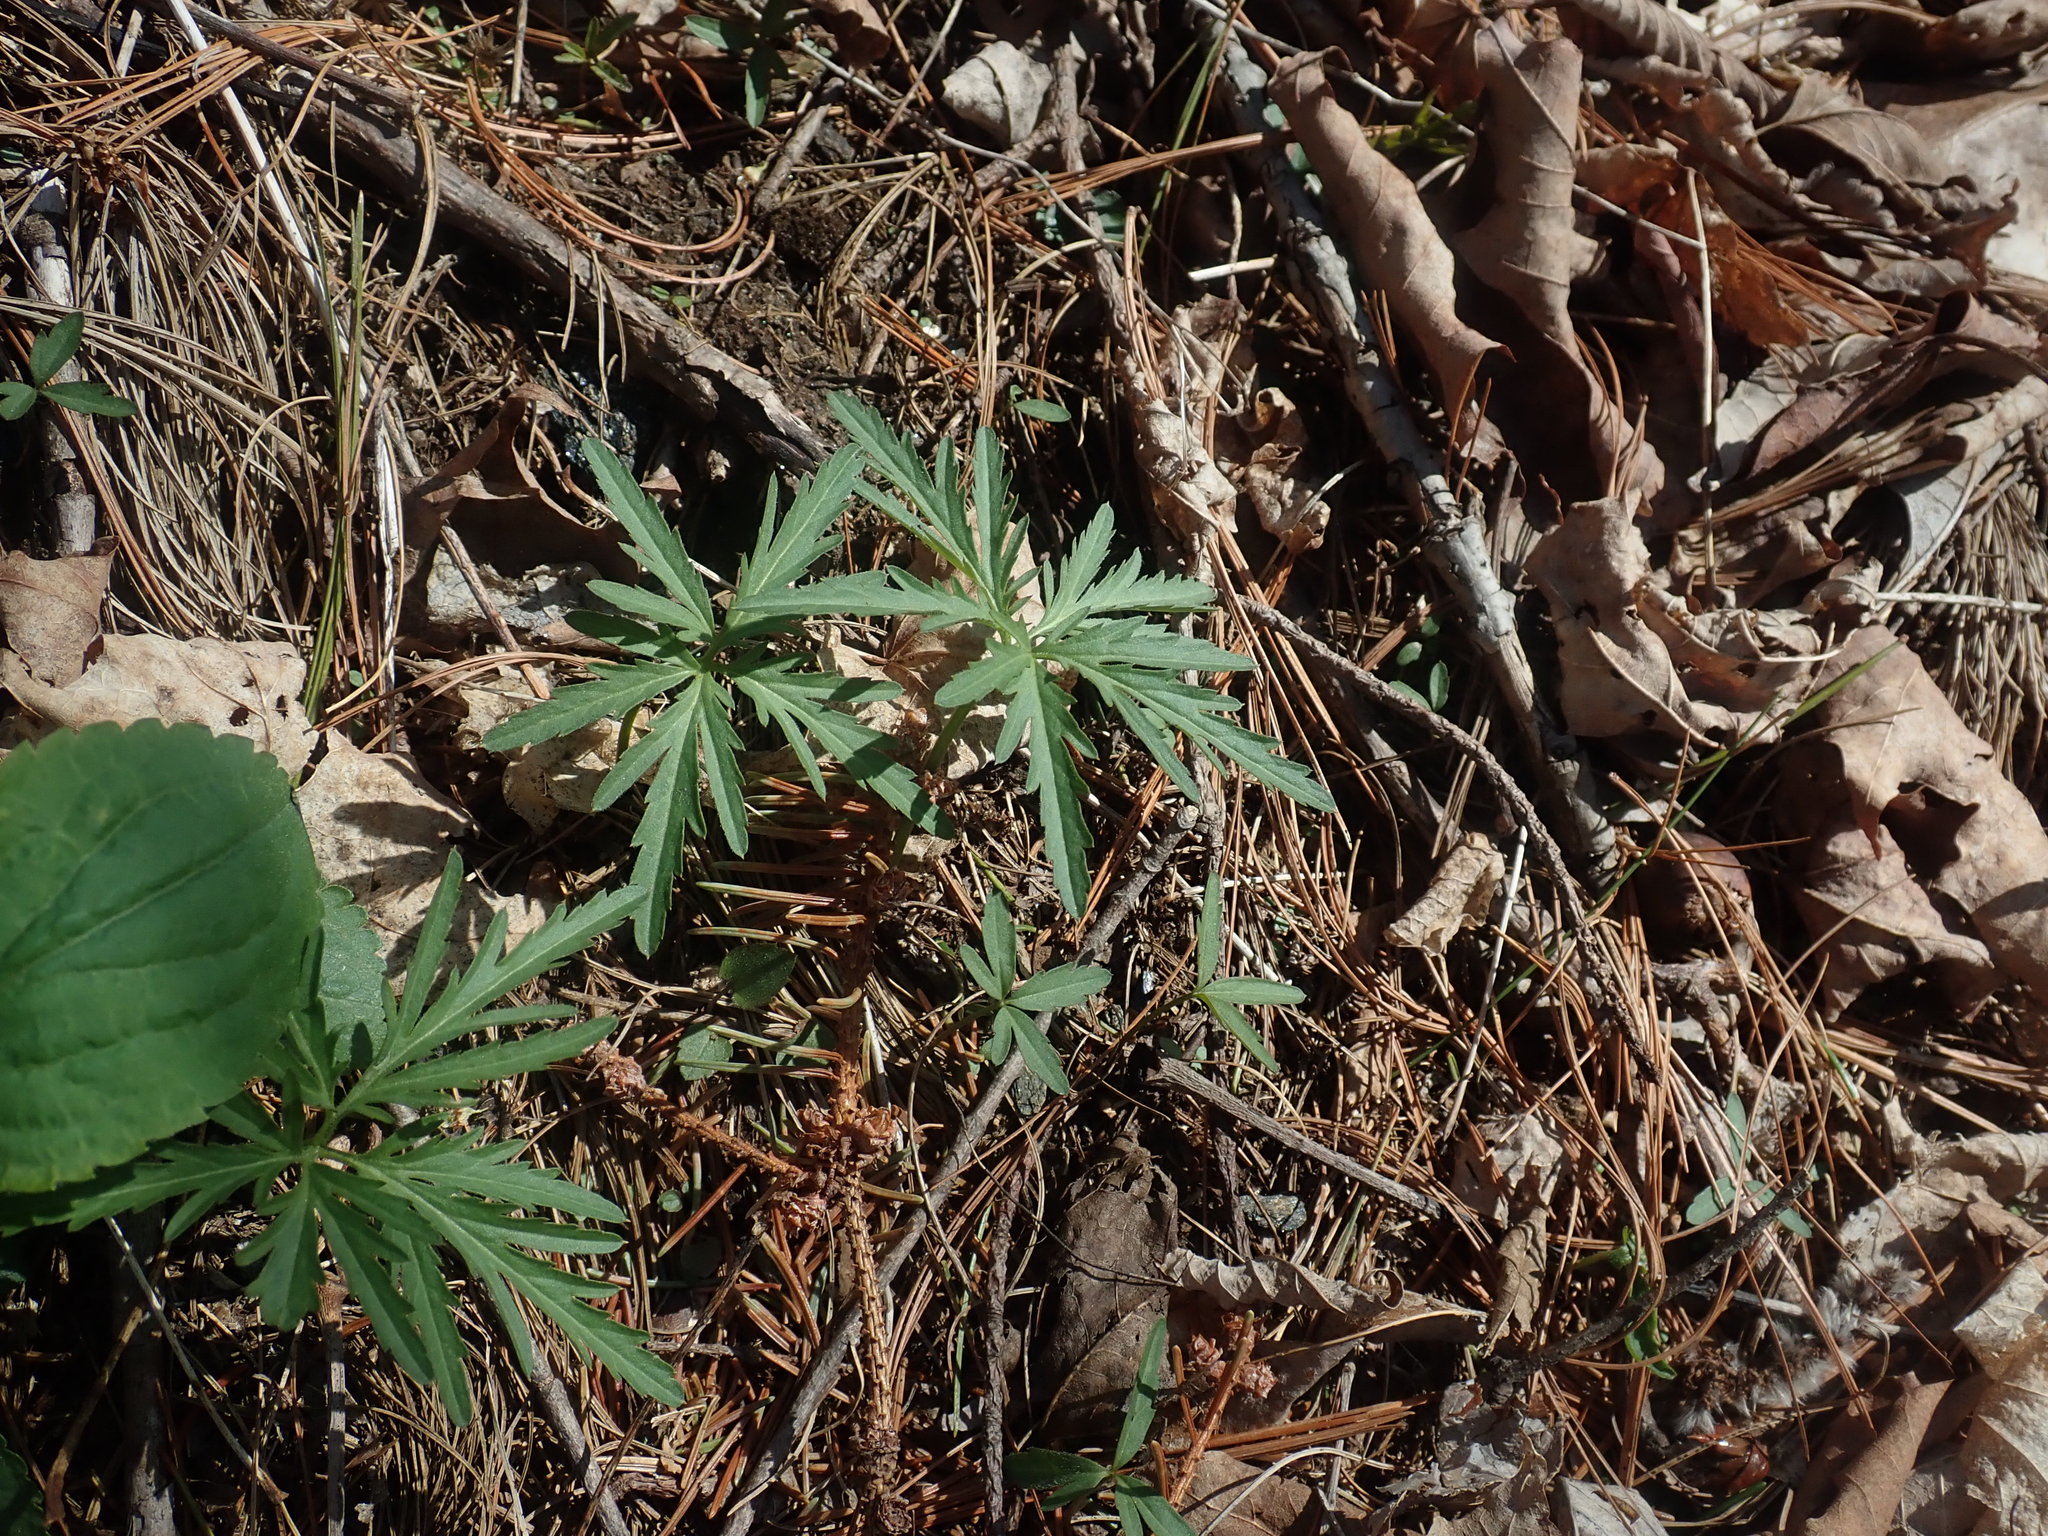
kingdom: Plantae
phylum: Tracheophyta
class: Magnoliopsida
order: Brassicales
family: Brassicaceae
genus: Cardamine
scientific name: Cardamine concatenata
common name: Cut-leaf toothcup
